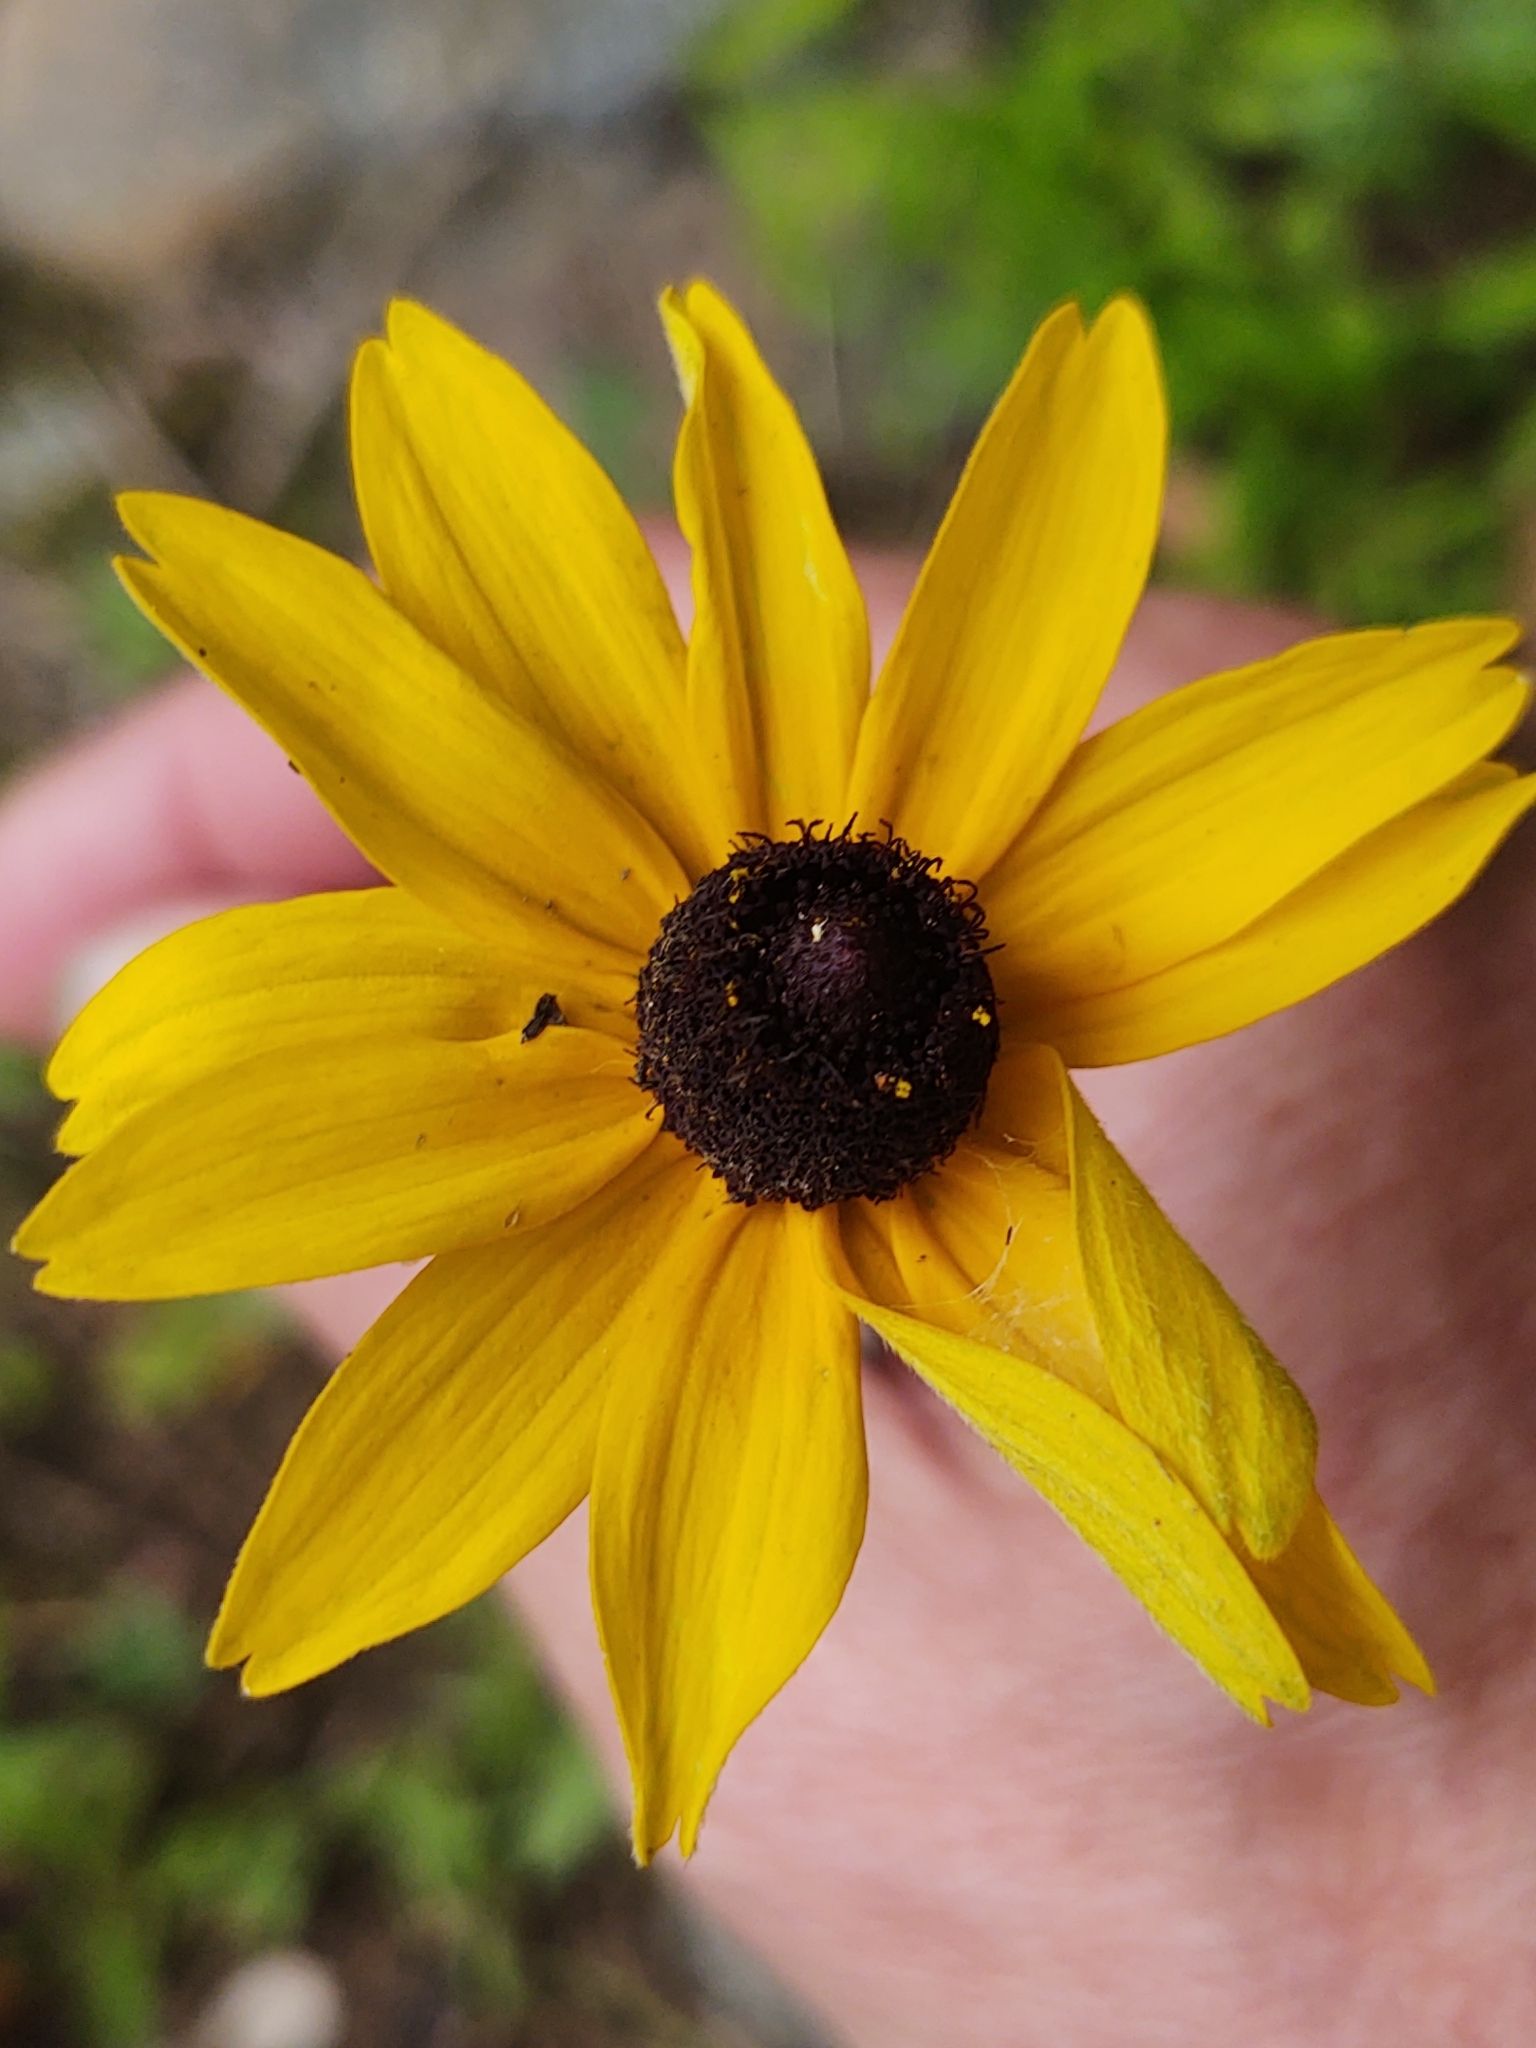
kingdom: Plantae
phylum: Tracheophyta
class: Magnoliopsida
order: Asterales
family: Asteraceae
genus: Rudbeckia
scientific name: Rudbeckia hirta
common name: Black-eyed-susan
